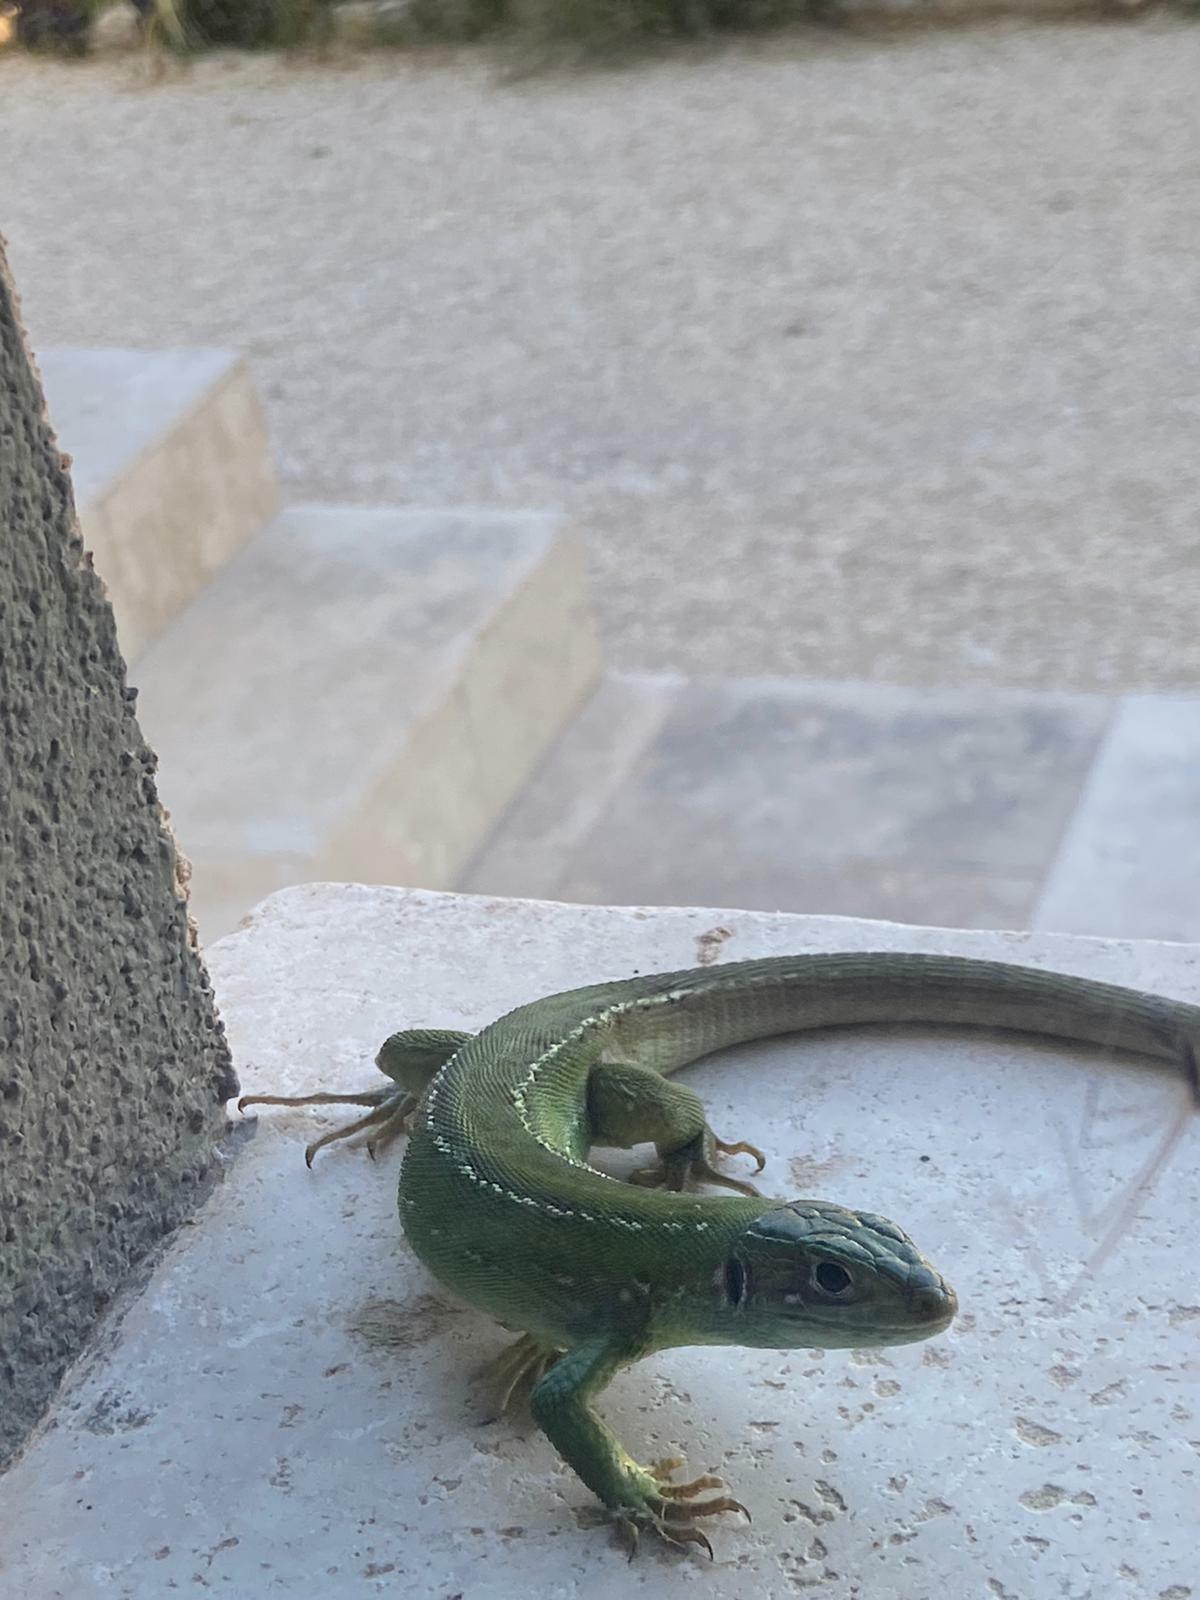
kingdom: Animalia
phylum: Chordata
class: Squamata
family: Lacertidae
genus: Lacerta
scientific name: Lacerta bilineata
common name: Western green lizard
